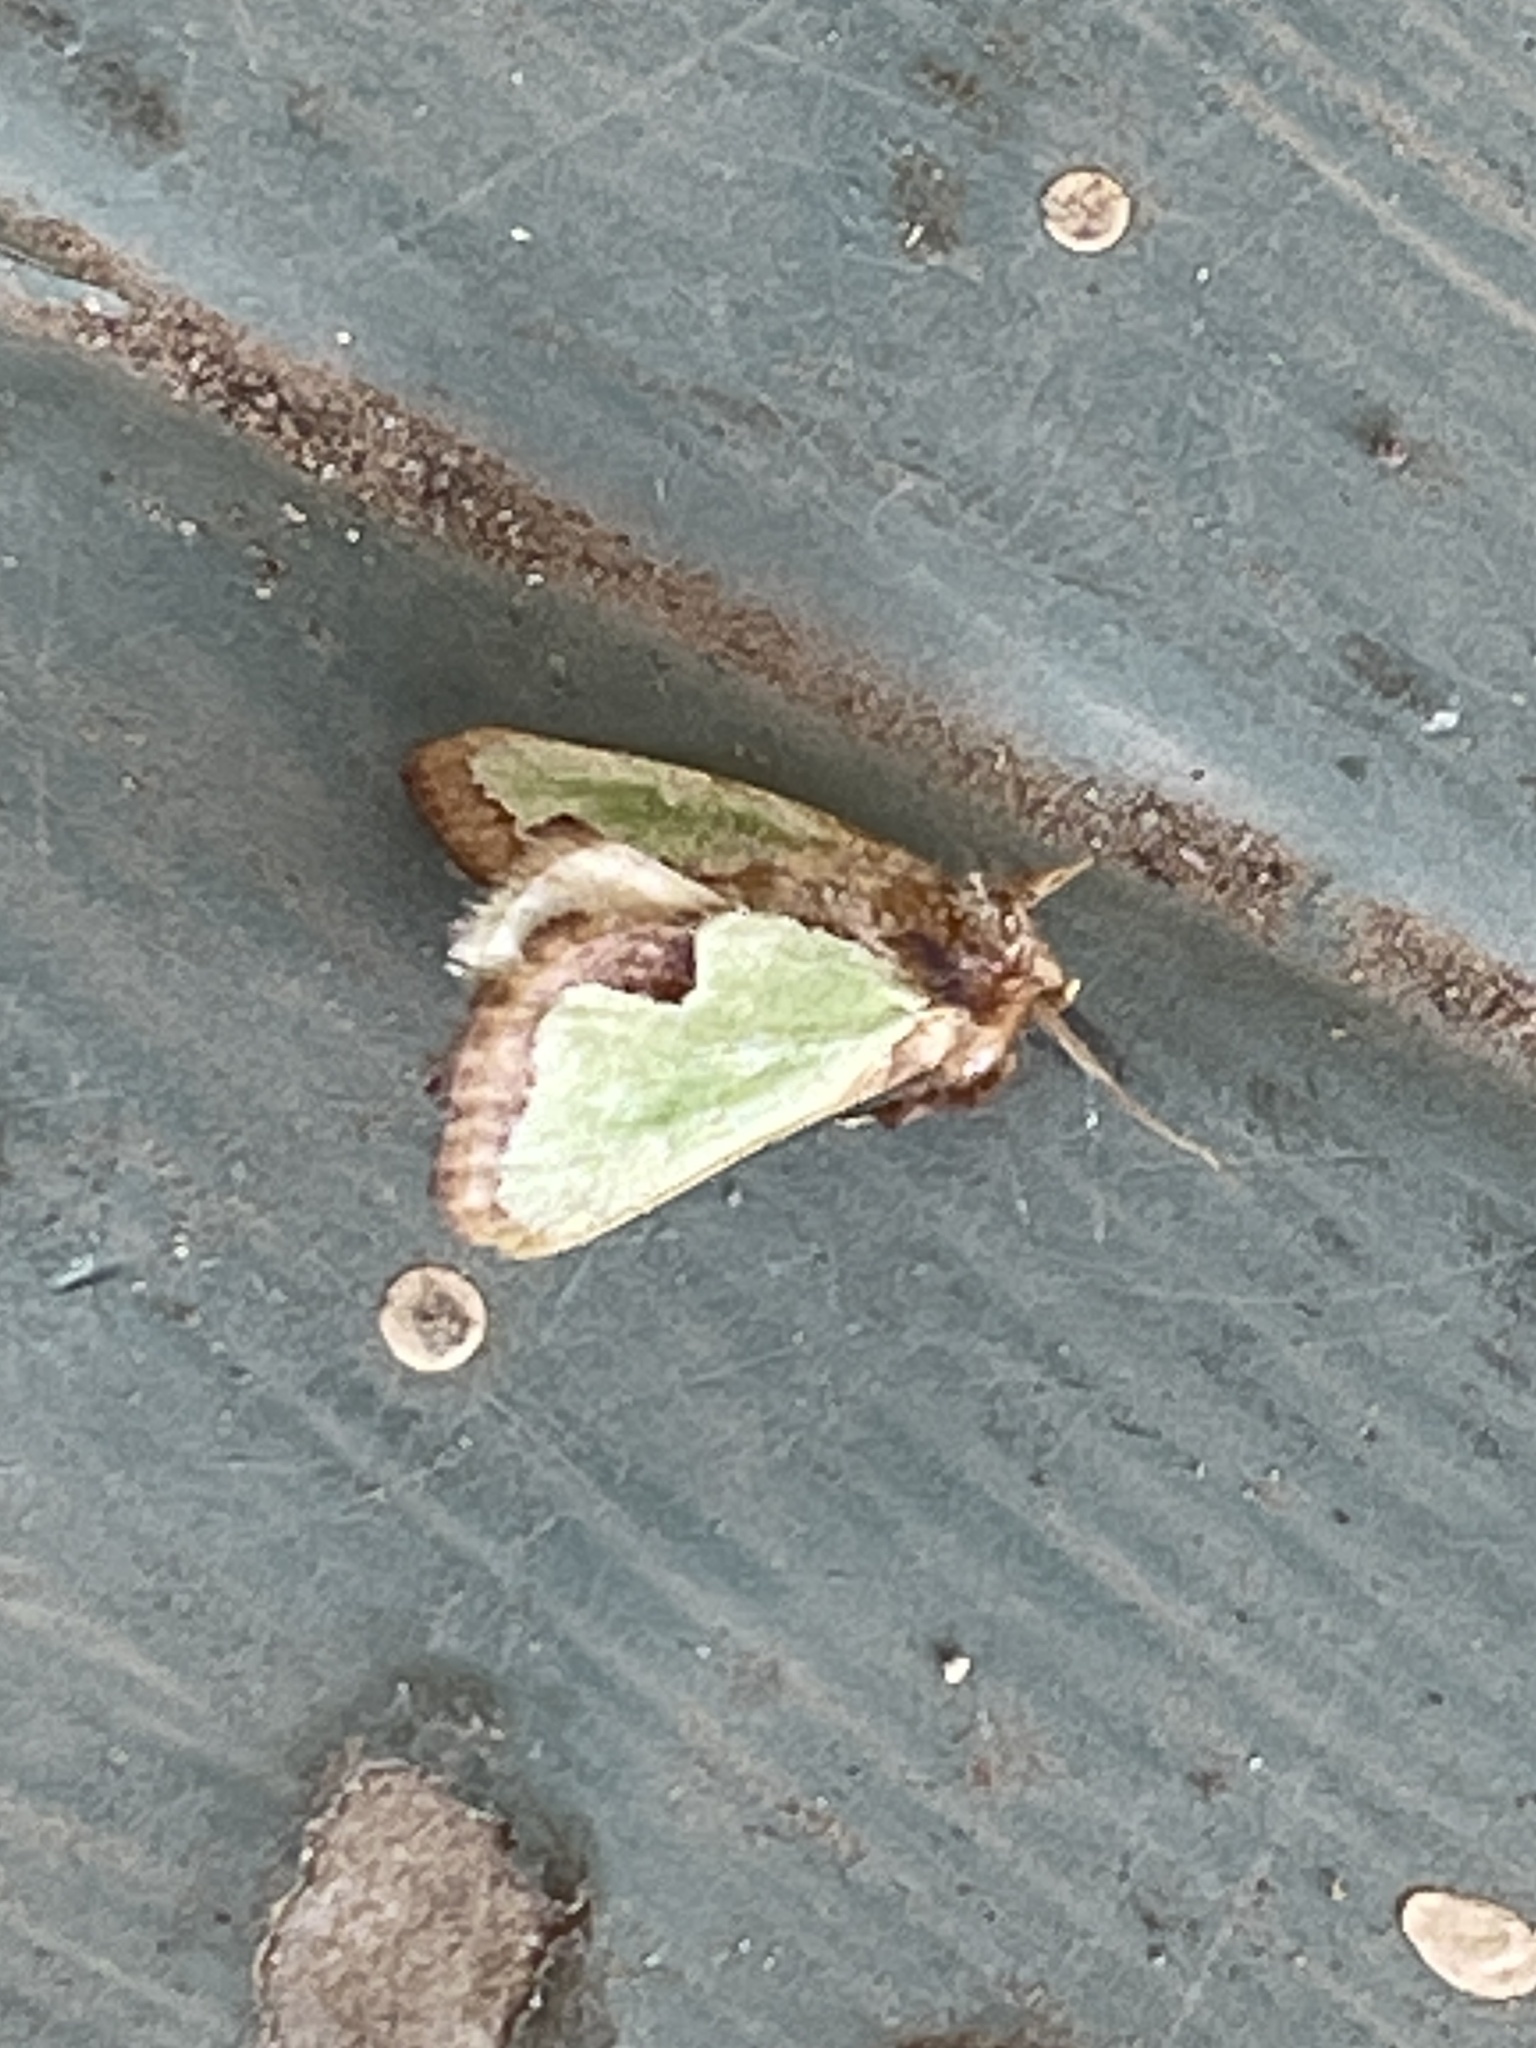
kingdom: Animalia
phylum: Arthropoda
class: Insecta
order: Lepidoptera
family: Limacodidae
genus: Euclea
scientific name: Euclea incisa
